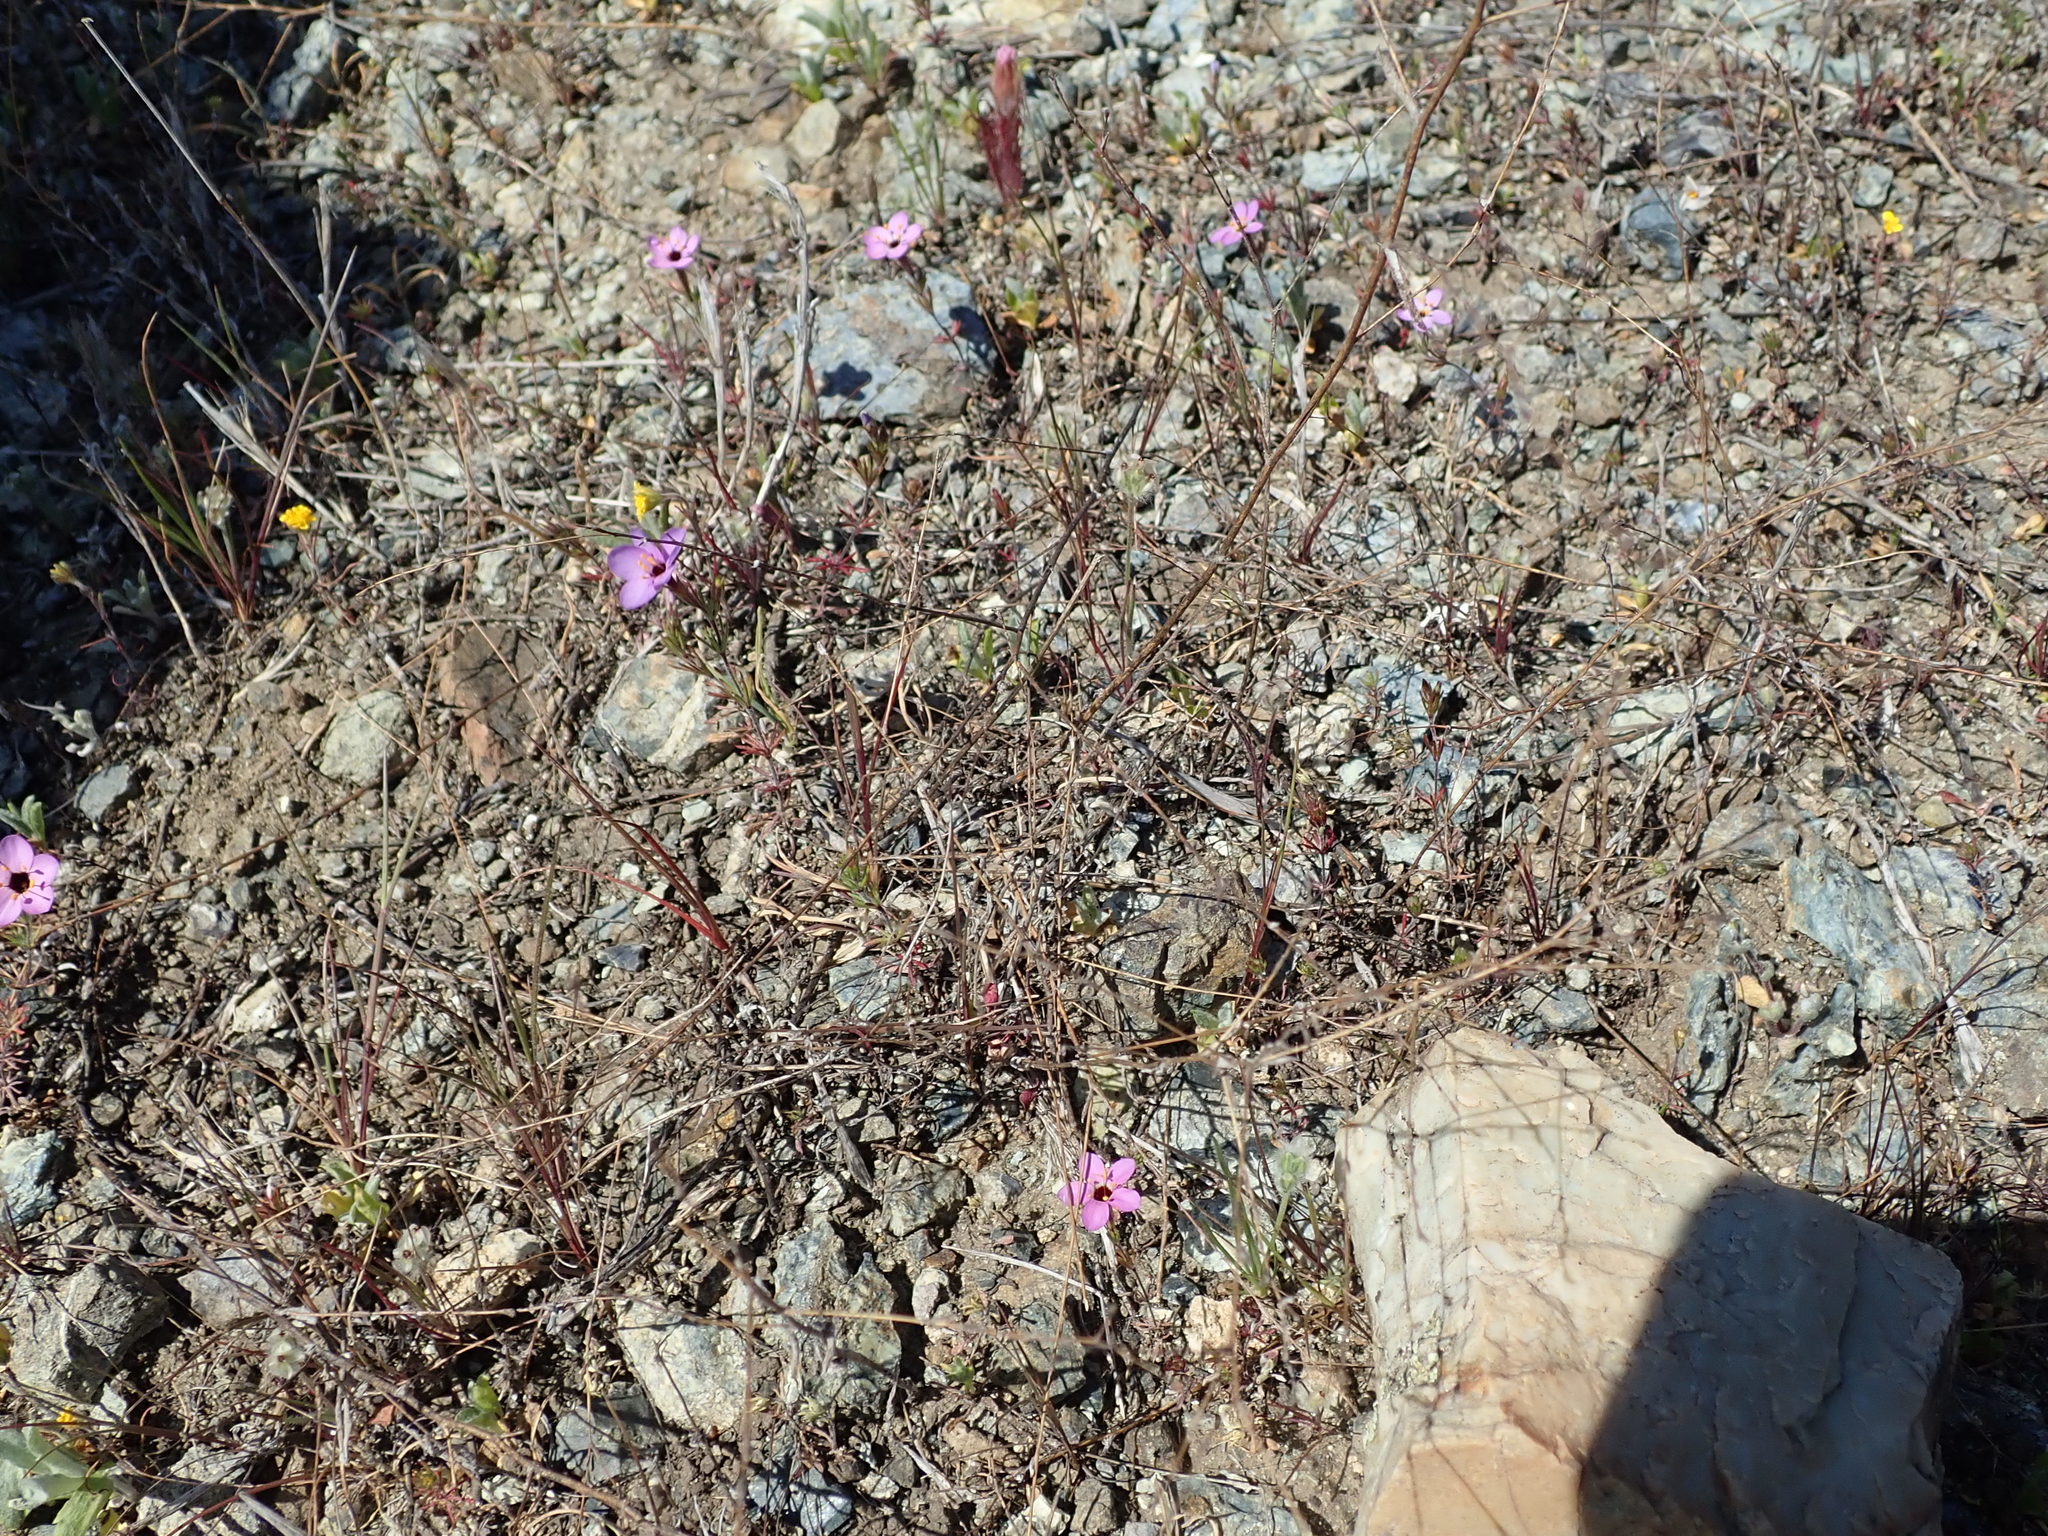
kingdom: Plantae
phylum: Tracheophyta
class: Magnoliopsida
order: Ericales
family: Polemoniaceae
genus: Leptosiphon
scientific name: Leptosiphon ambiguus
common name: Serpentine linanthus
